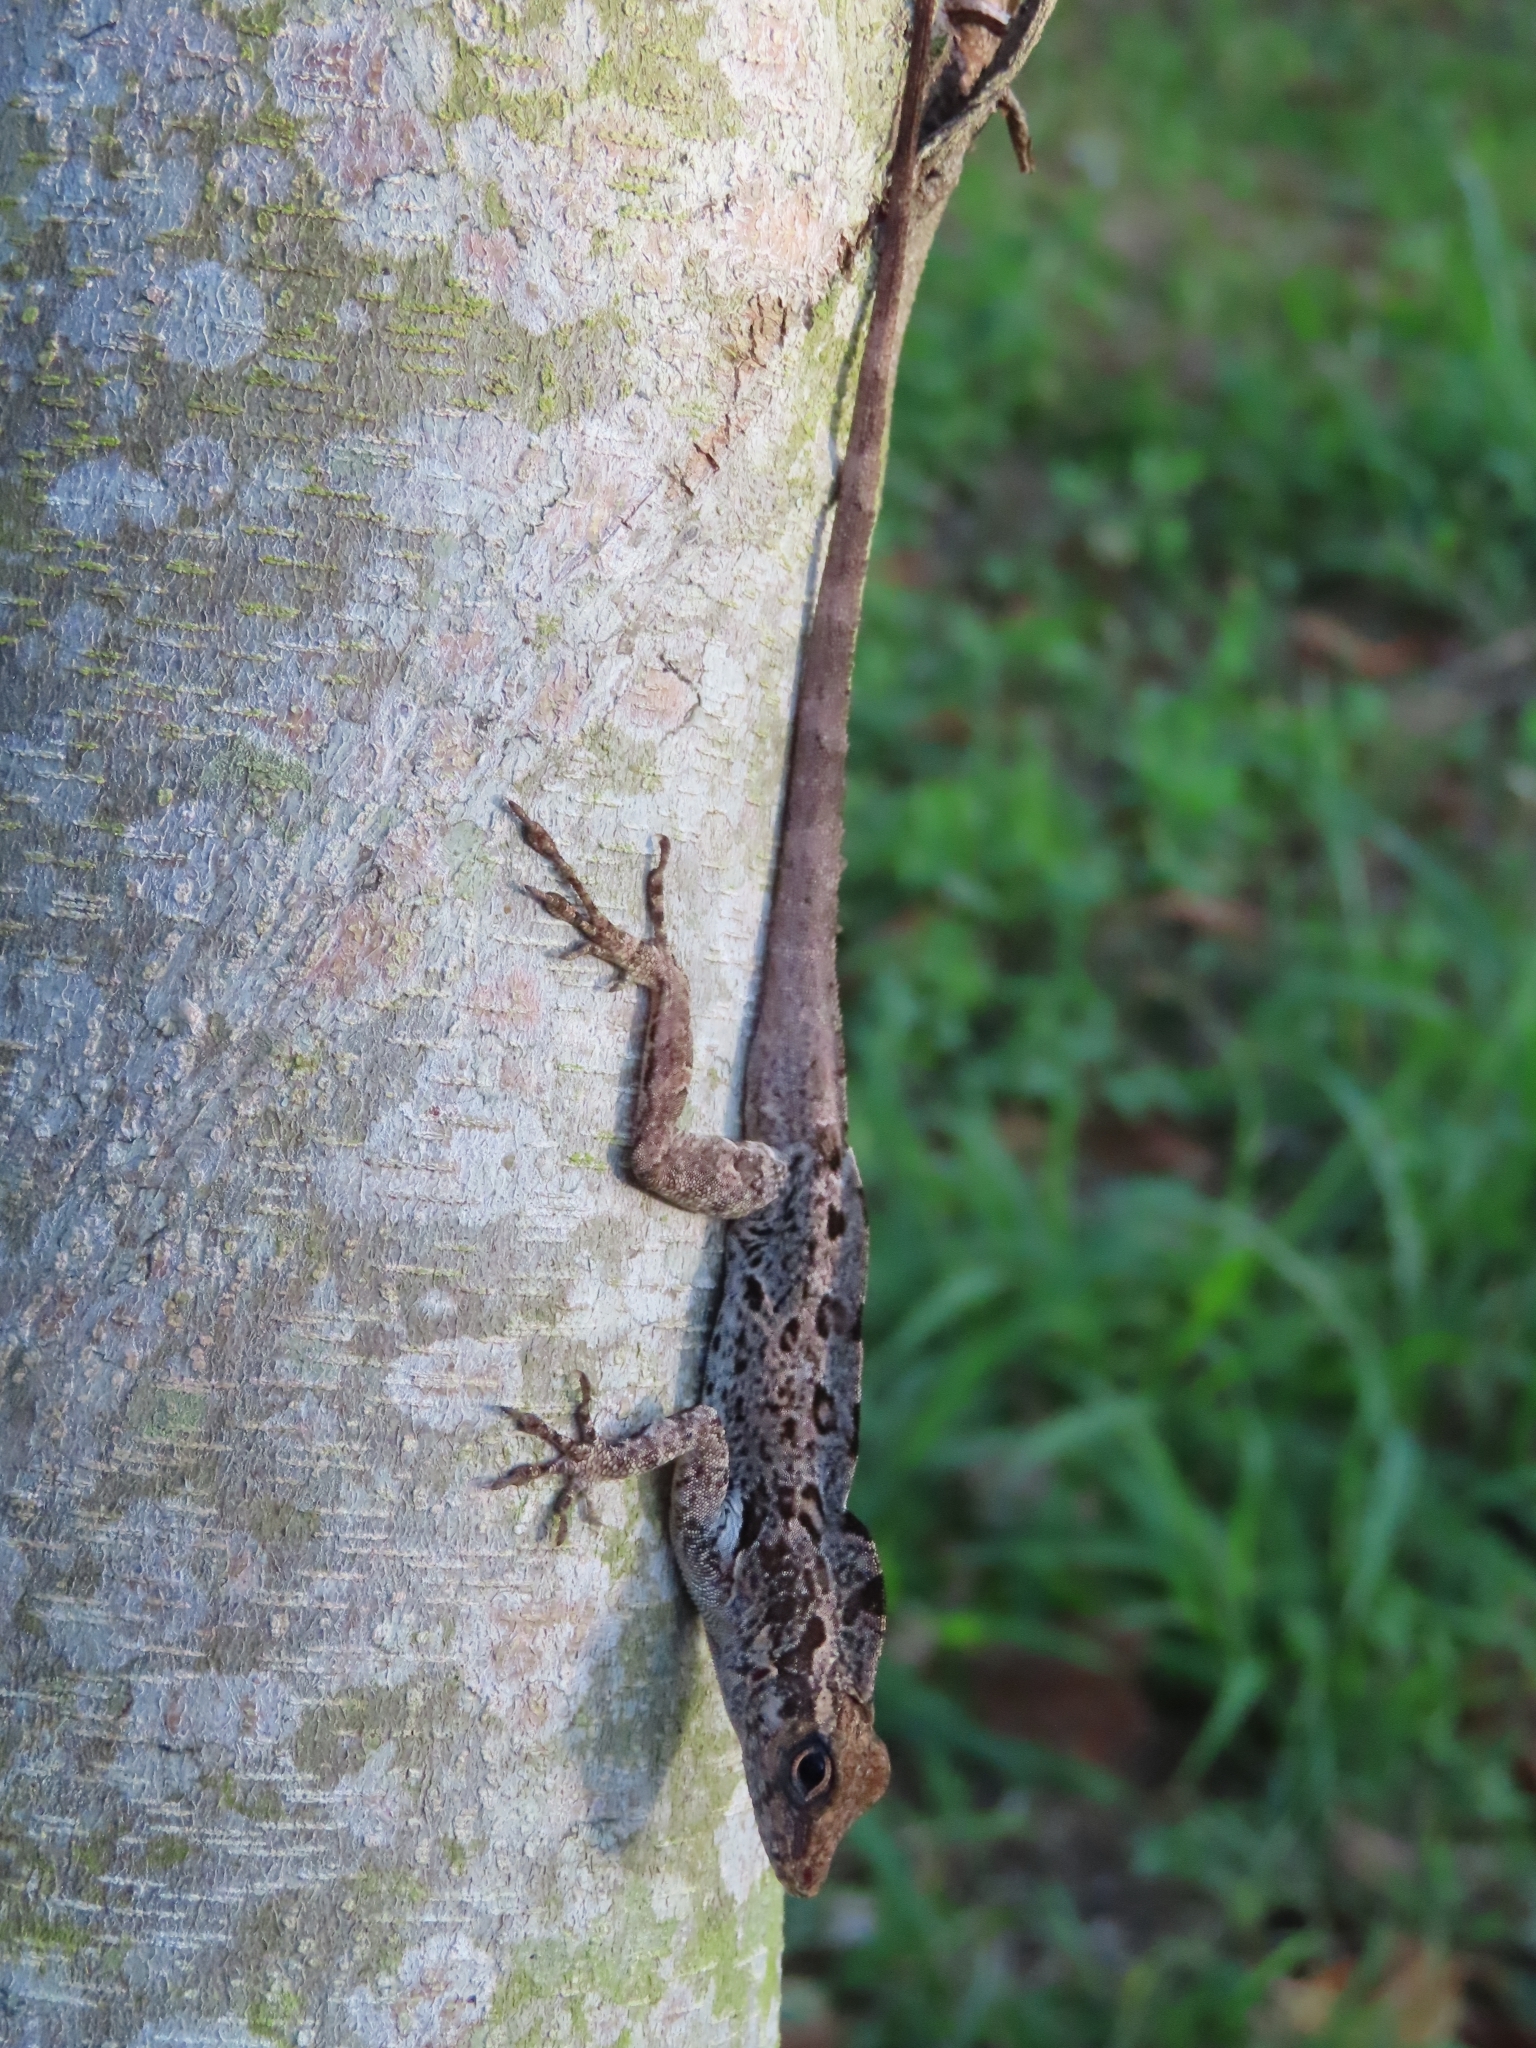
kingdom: Animalia
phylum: Chordata
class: Squamata
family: Dactyloidae
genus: Anolis
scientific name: Anolis cristatellus
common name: Crested anole
